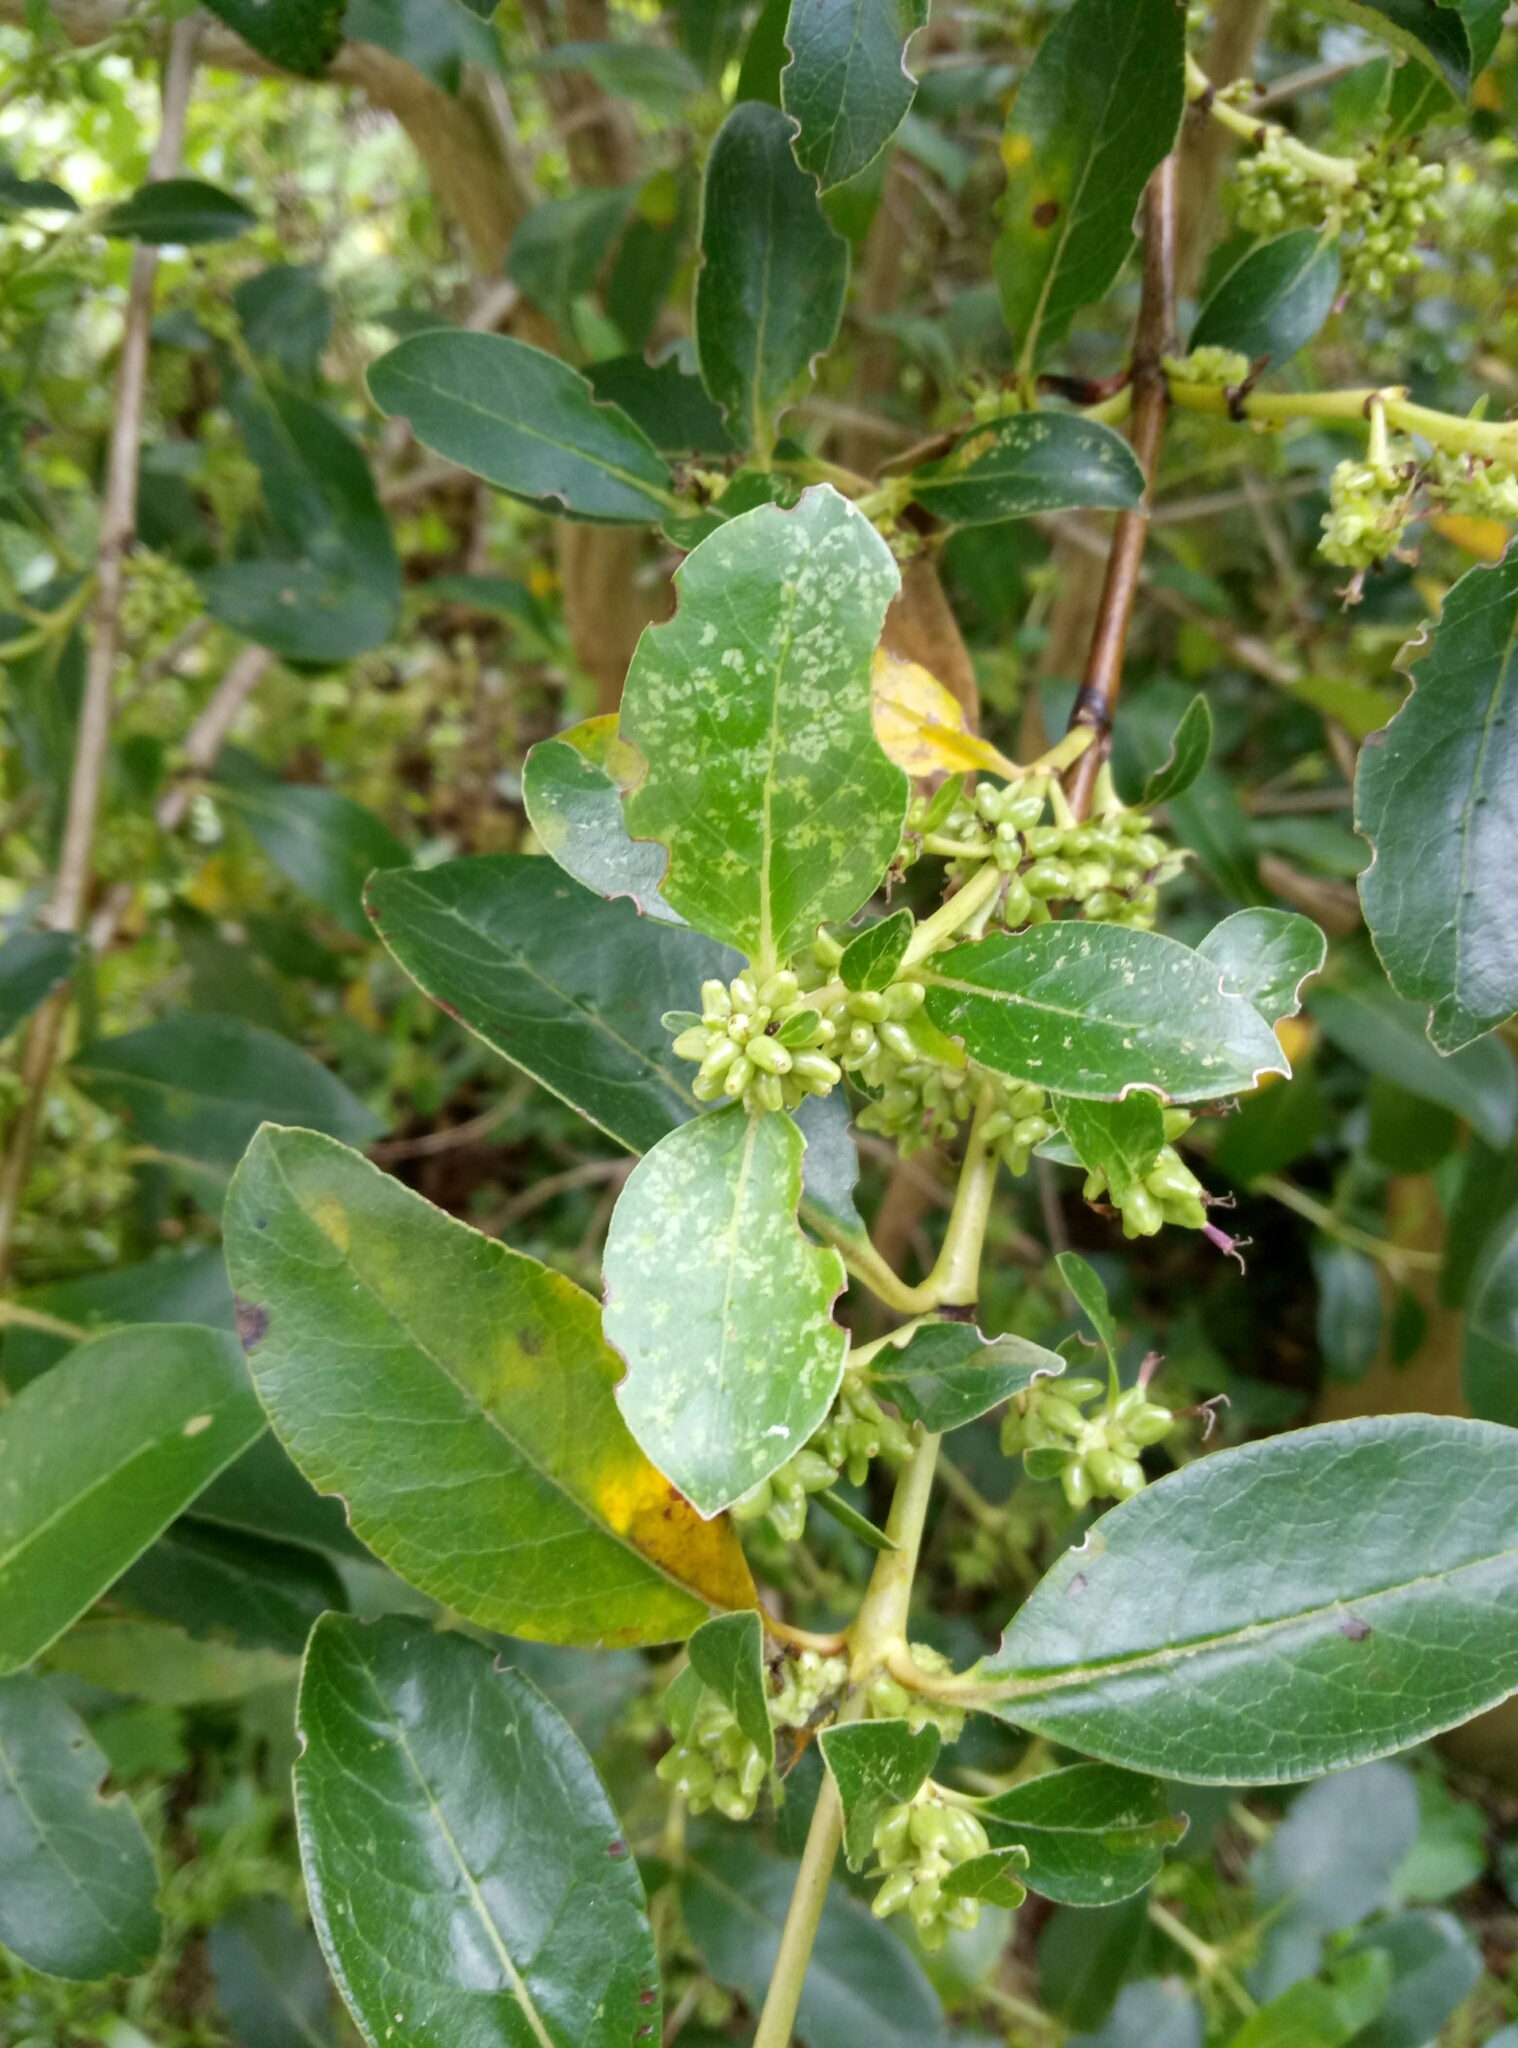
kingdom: Plantae
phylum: Tracheophyta
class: Magnoliopsida
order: Gentianales
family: Rubiaceae
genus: Coprosma
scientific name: Coprosma robusta
